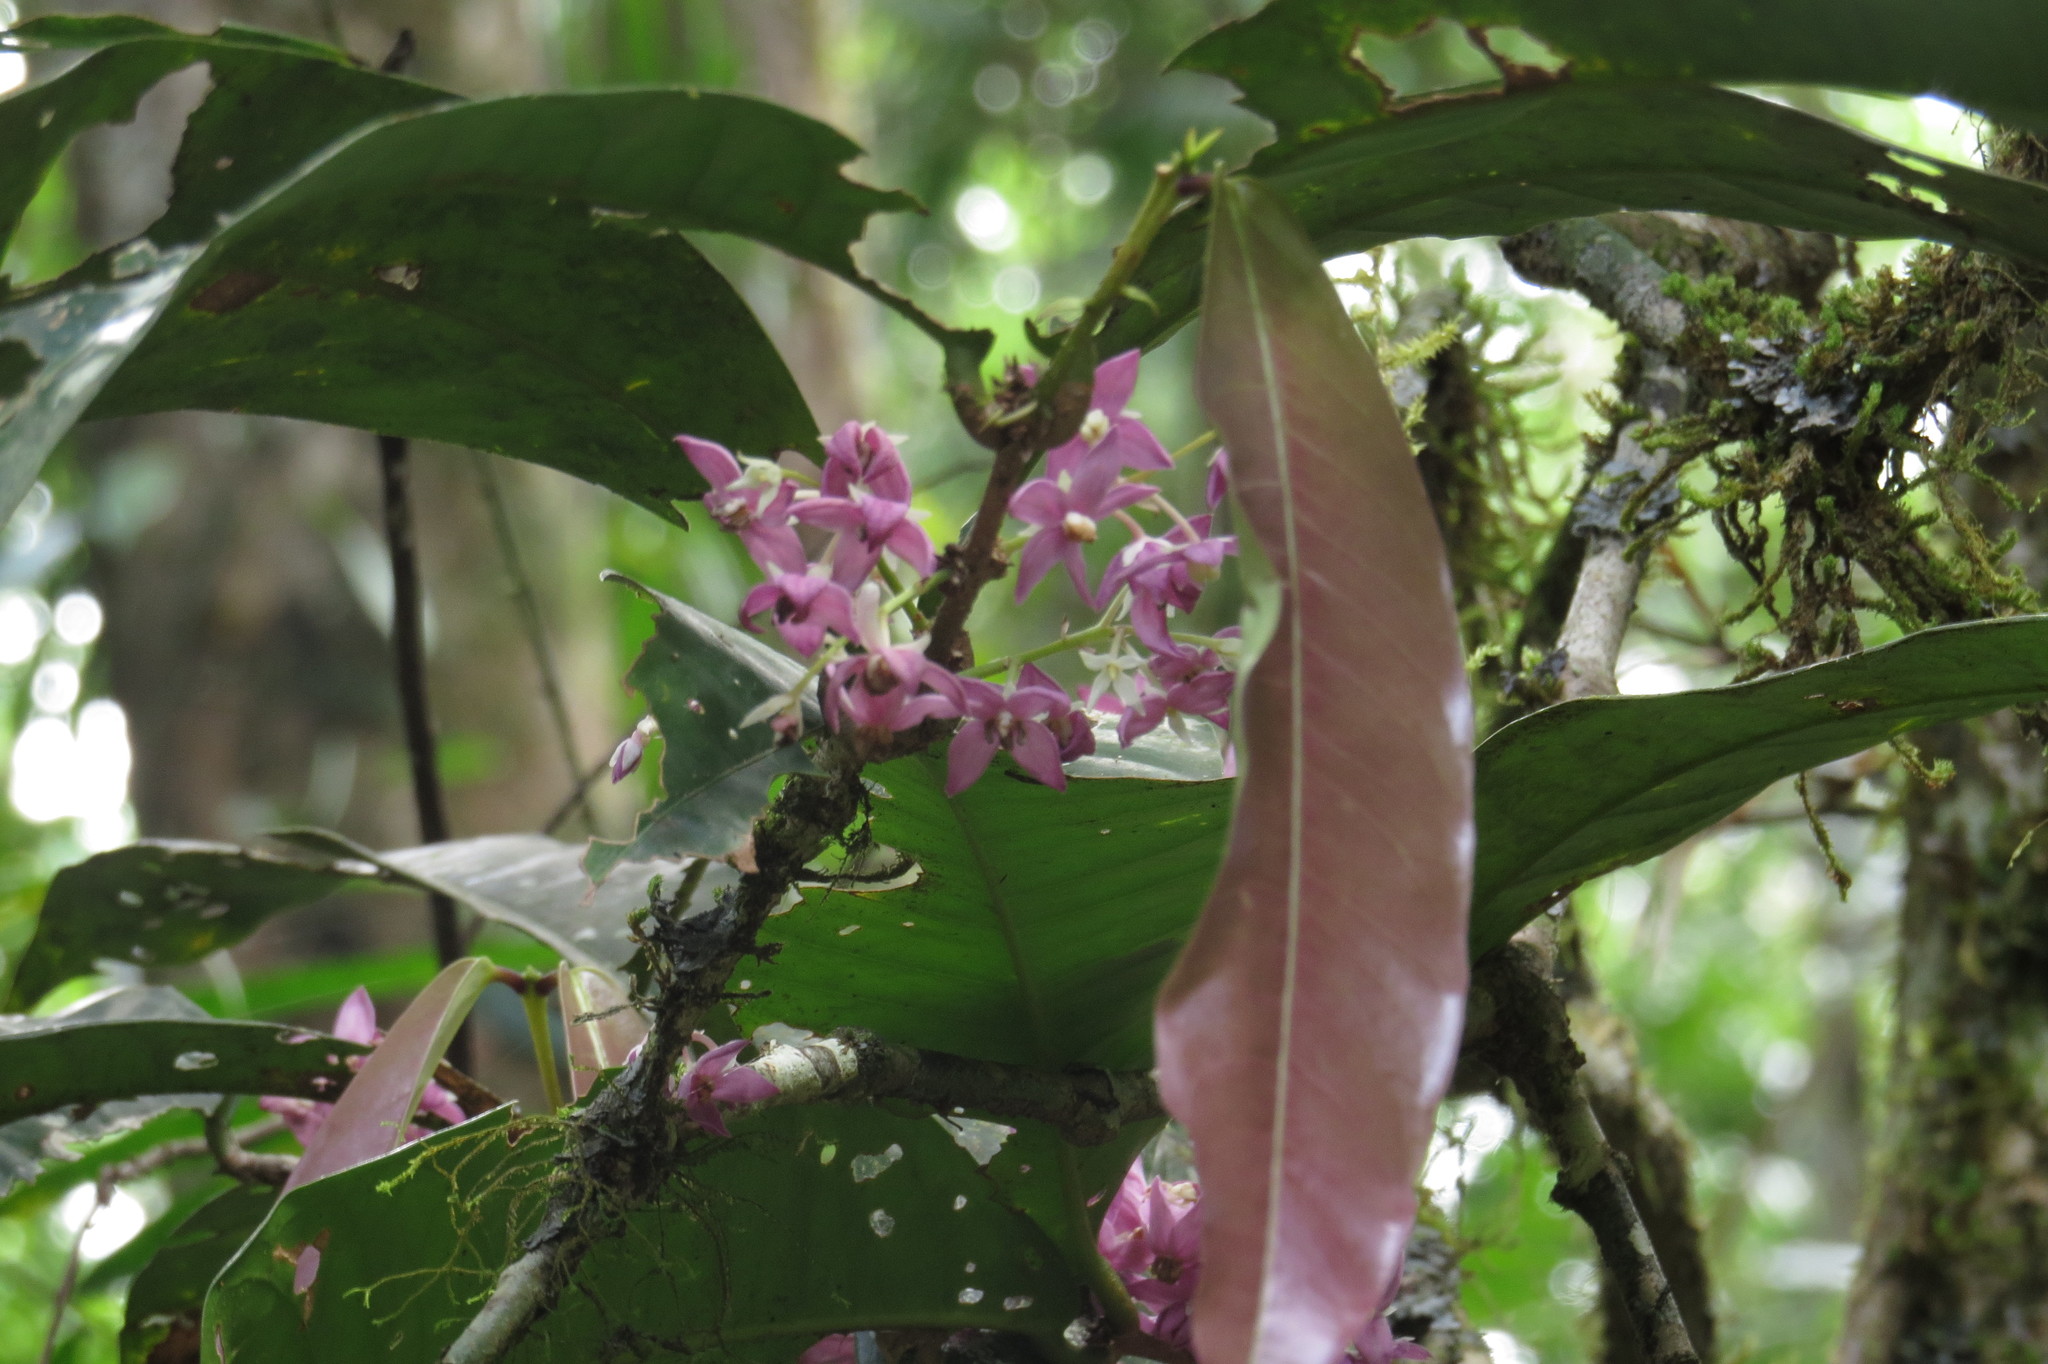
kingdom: Plantae
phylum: Tracheophyta
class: Magnoliopsida
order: Lamiales
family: Oleaceae
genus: Chionanthus
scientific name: Chionanthus sleumeri
